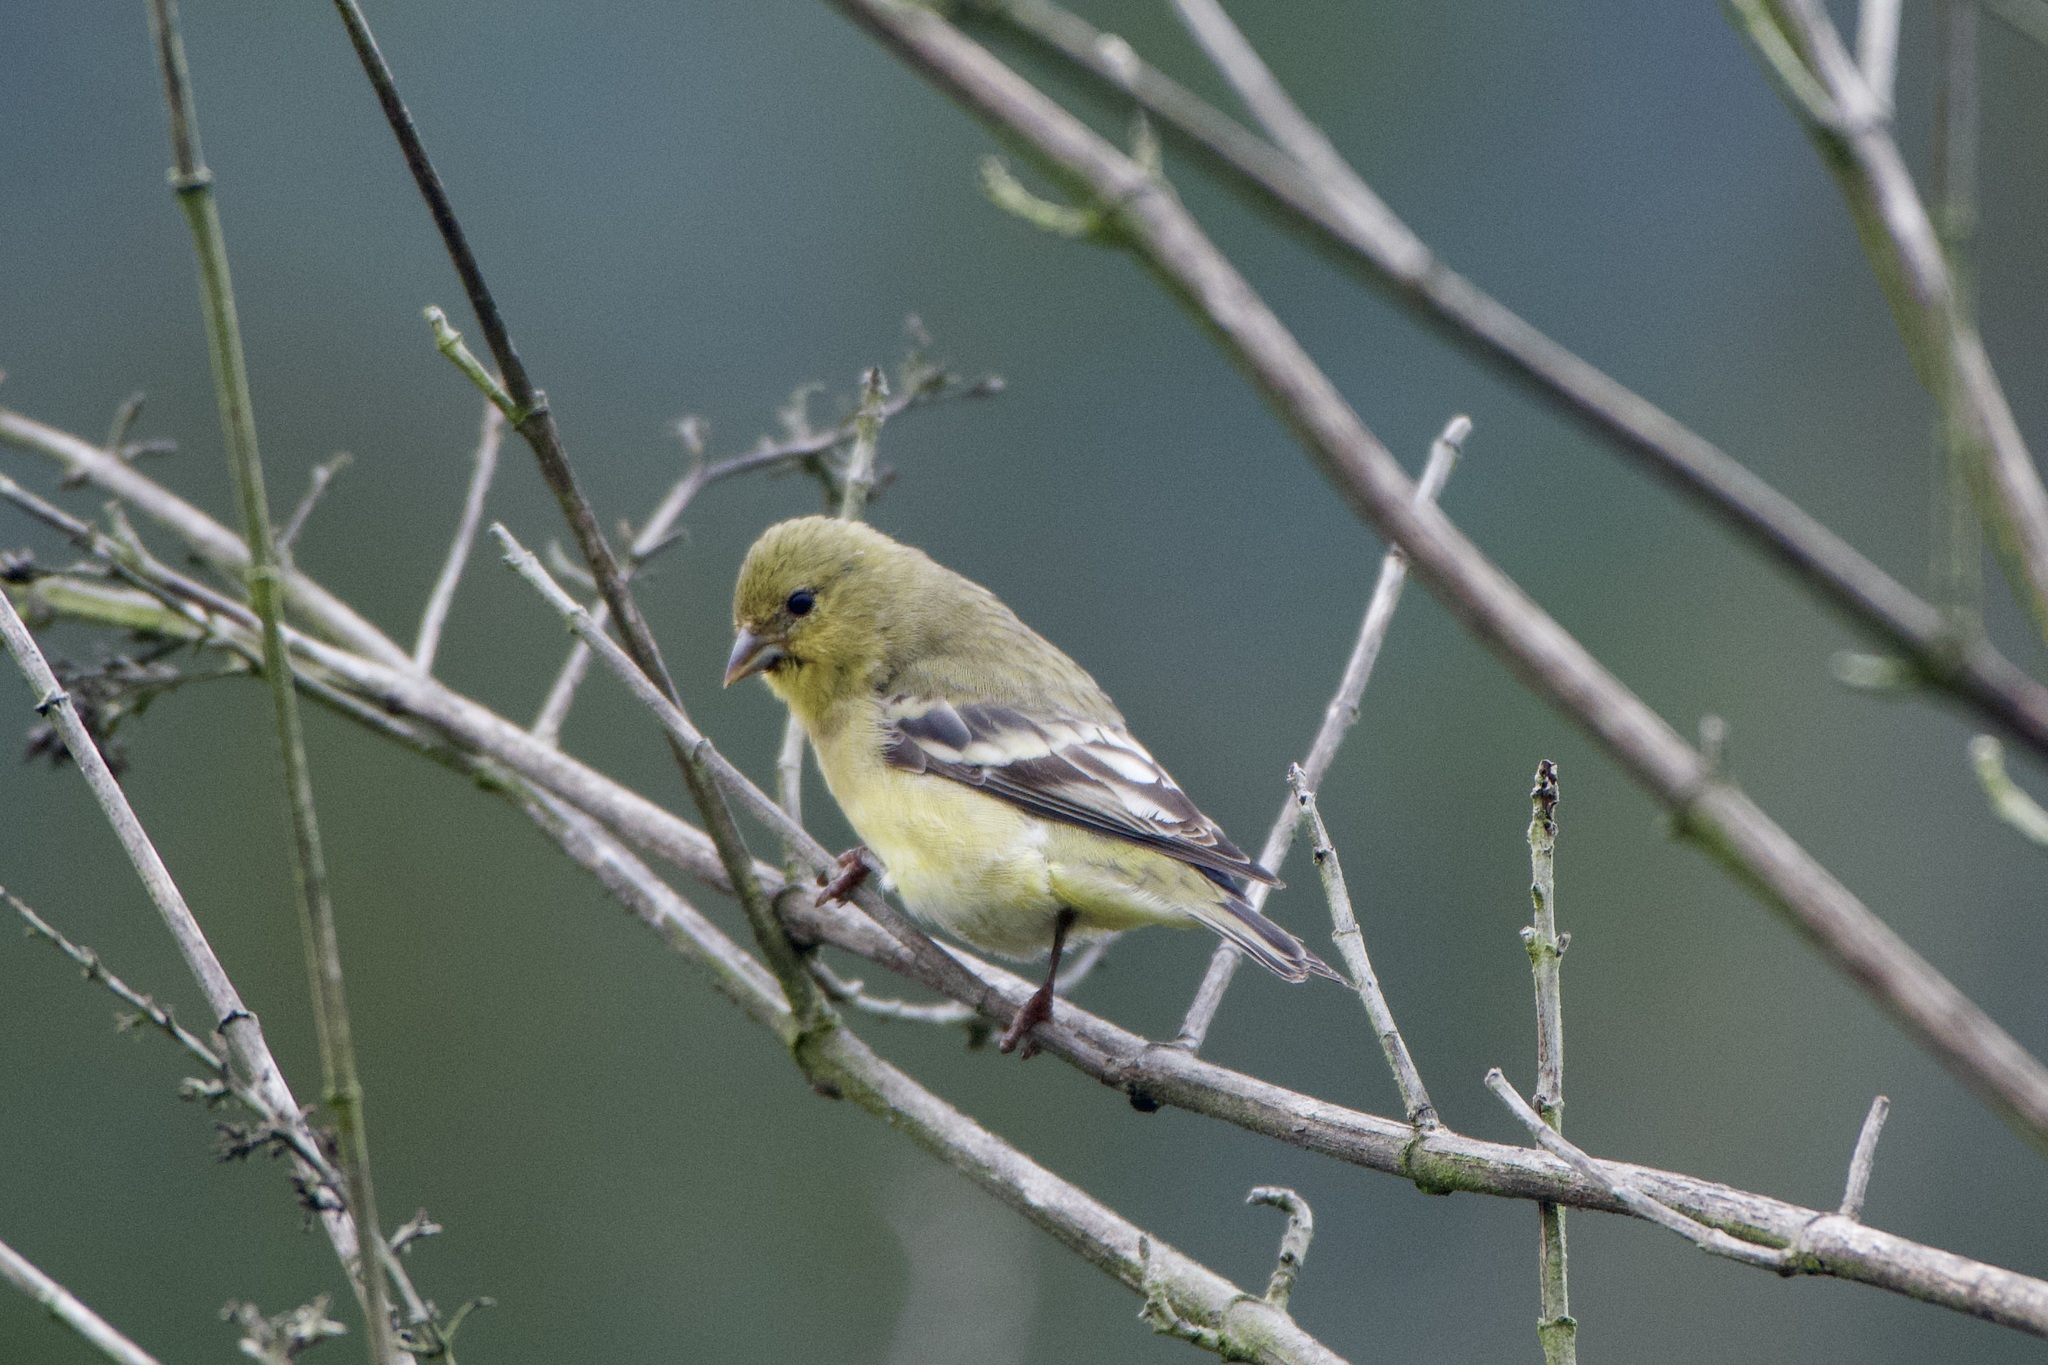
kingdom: Animalia
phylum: Chordata
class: Aves
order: Passeriformes
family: Fringillidae
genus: Spinus
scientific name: Spinus psaltria
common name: Lesser goldfinch
